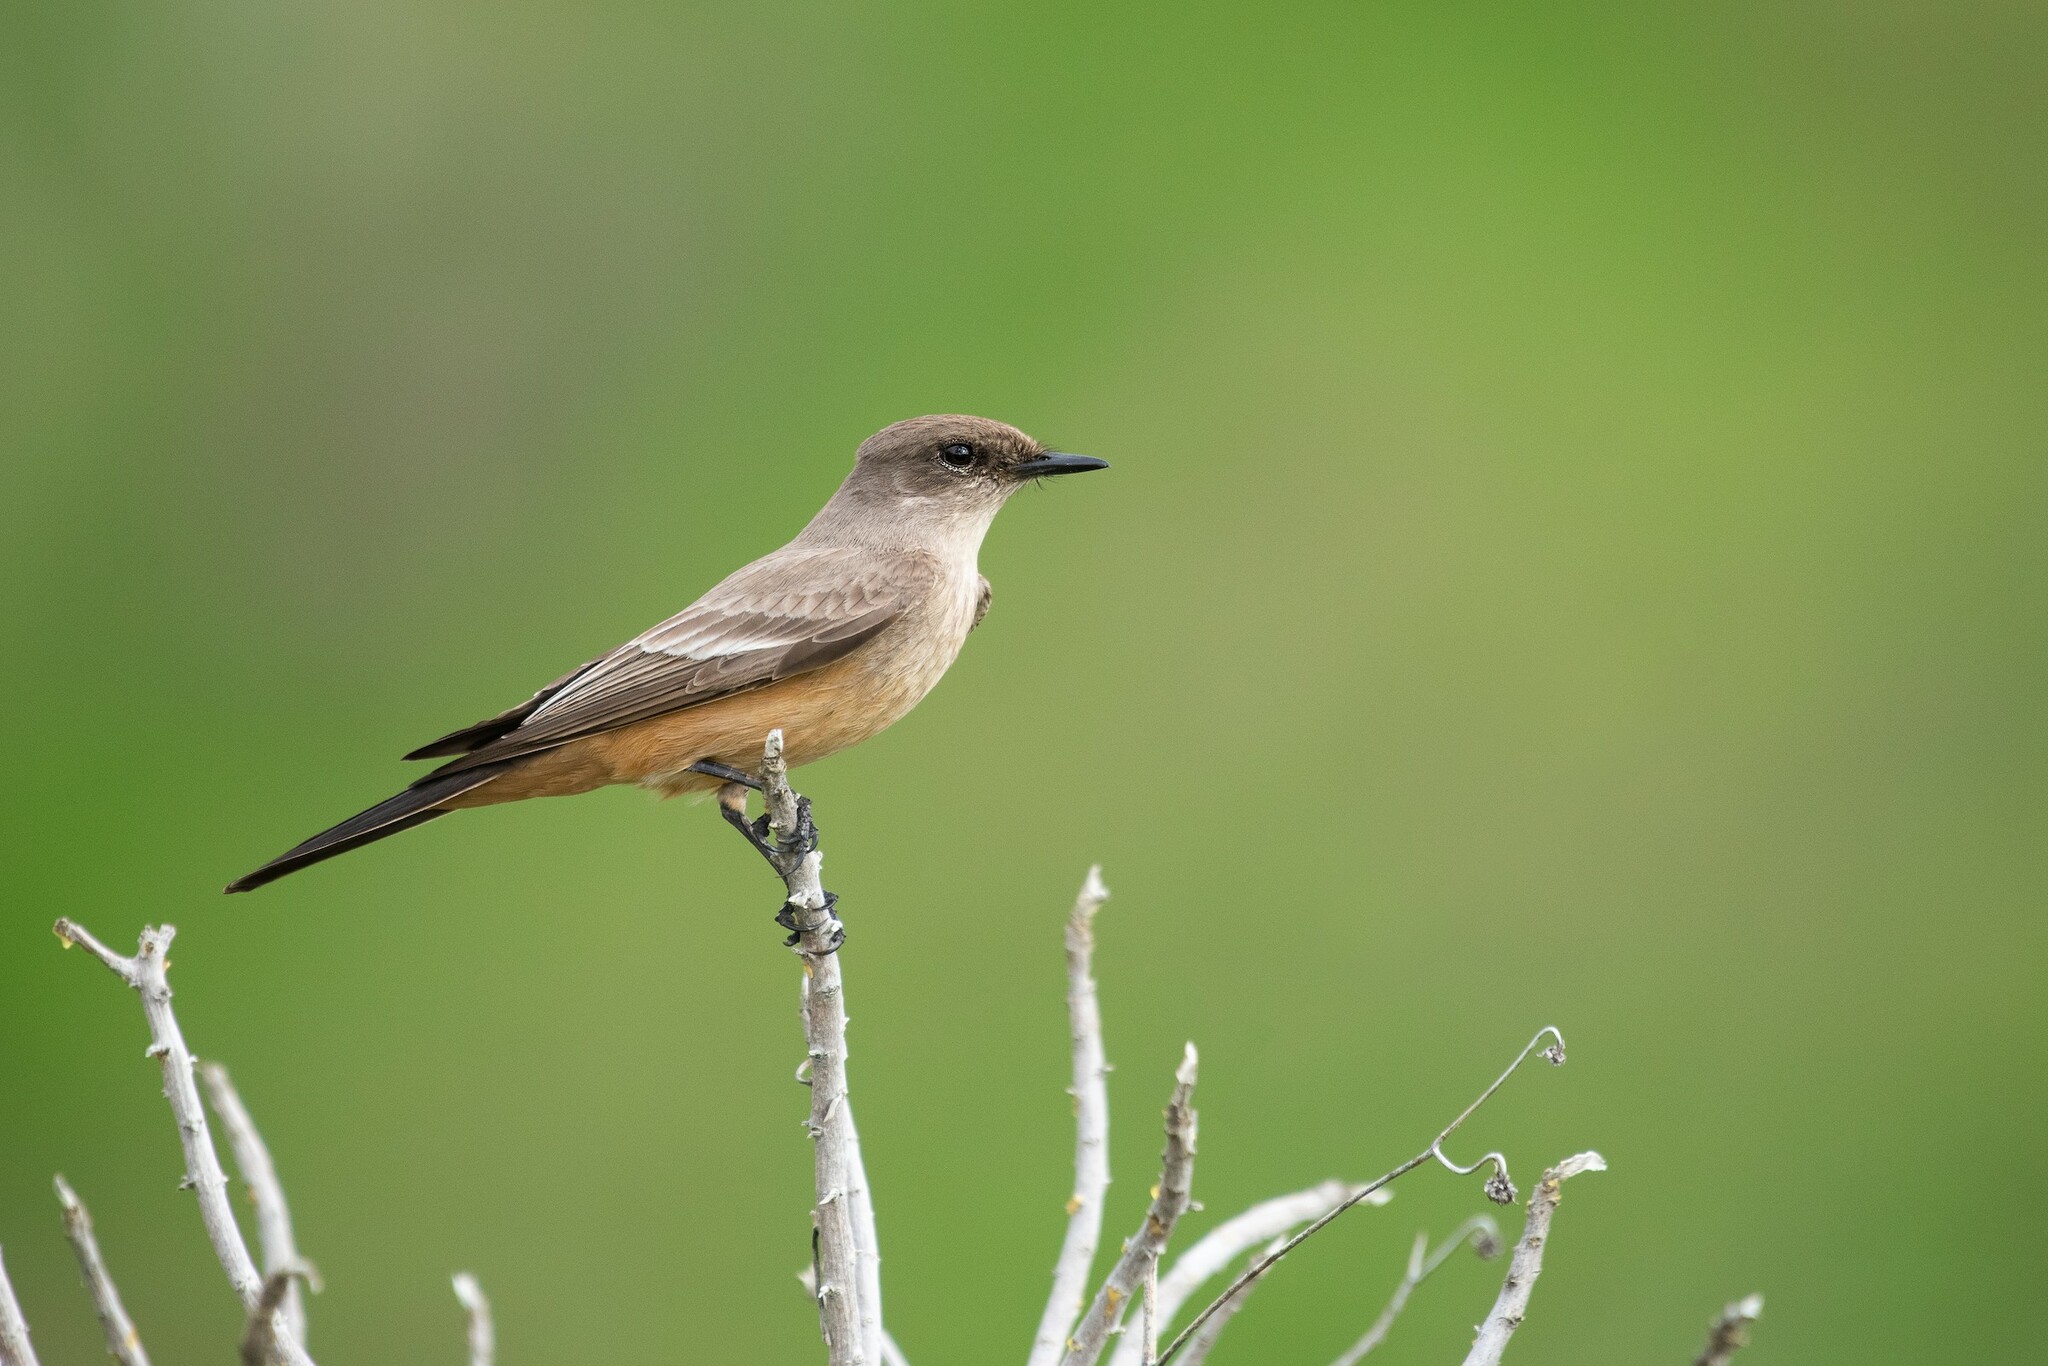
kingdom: Animalia
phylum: Chordata
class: Aves
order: Passeriformes
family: Tyrannidae
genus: Sayornis
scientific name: Sayornis saya
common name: Say's phoebe
